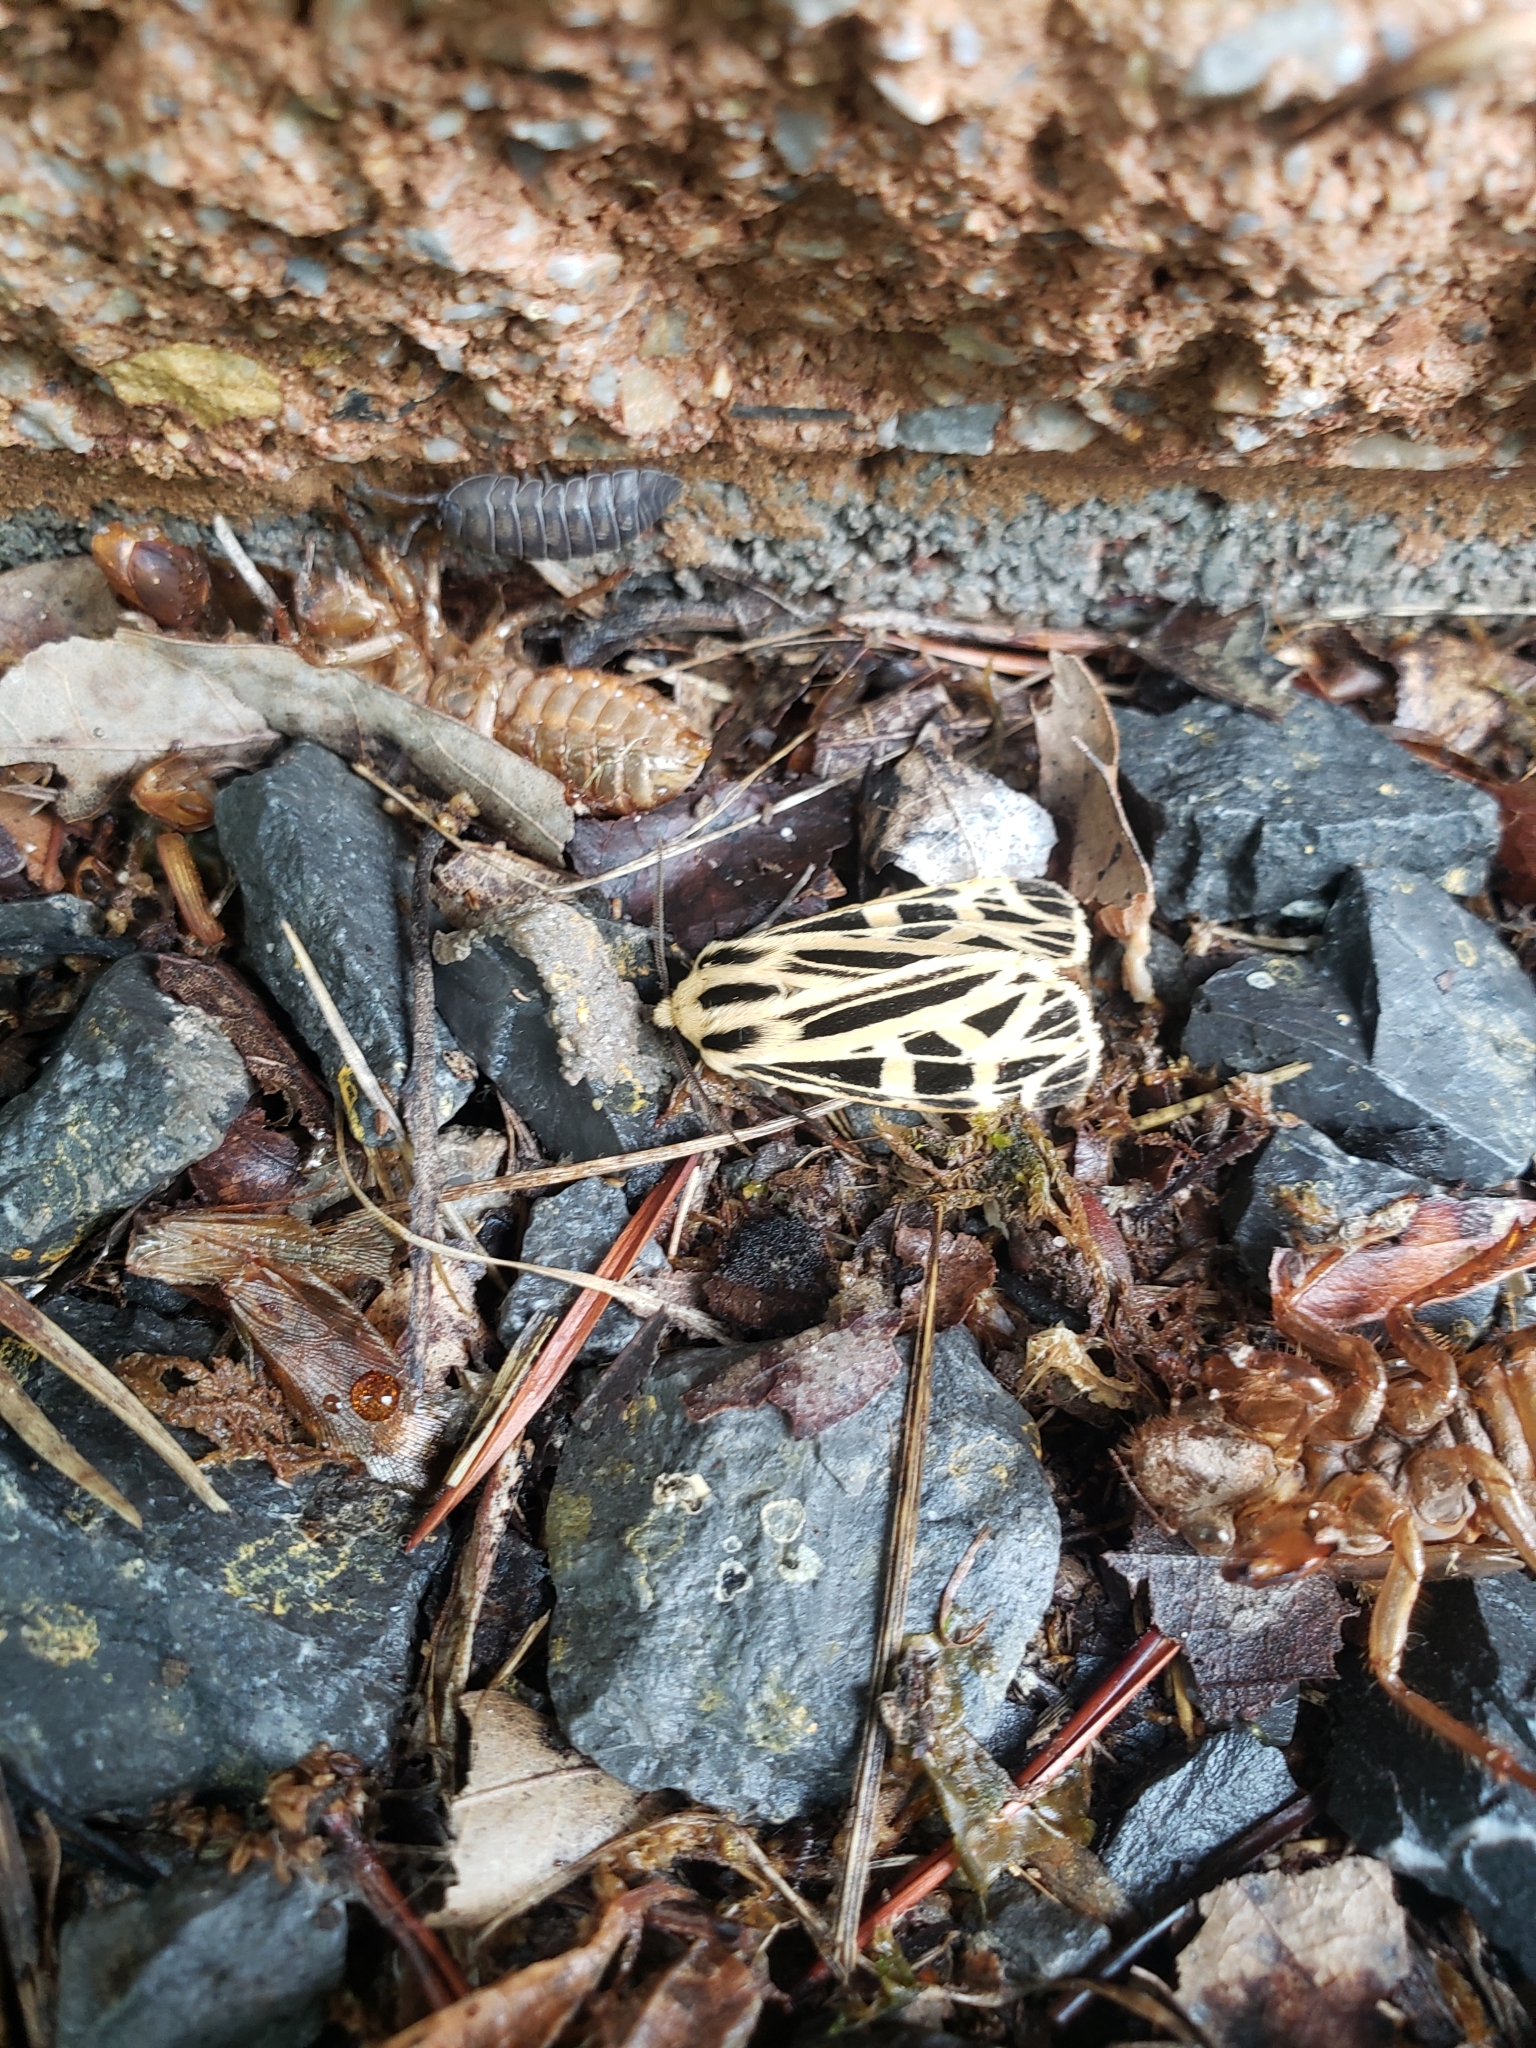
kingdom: Animalia
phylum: Arthropoda
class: Insecta
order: Lepidoptera
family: Erebidae
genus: Apantesis
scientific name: Apantesis
